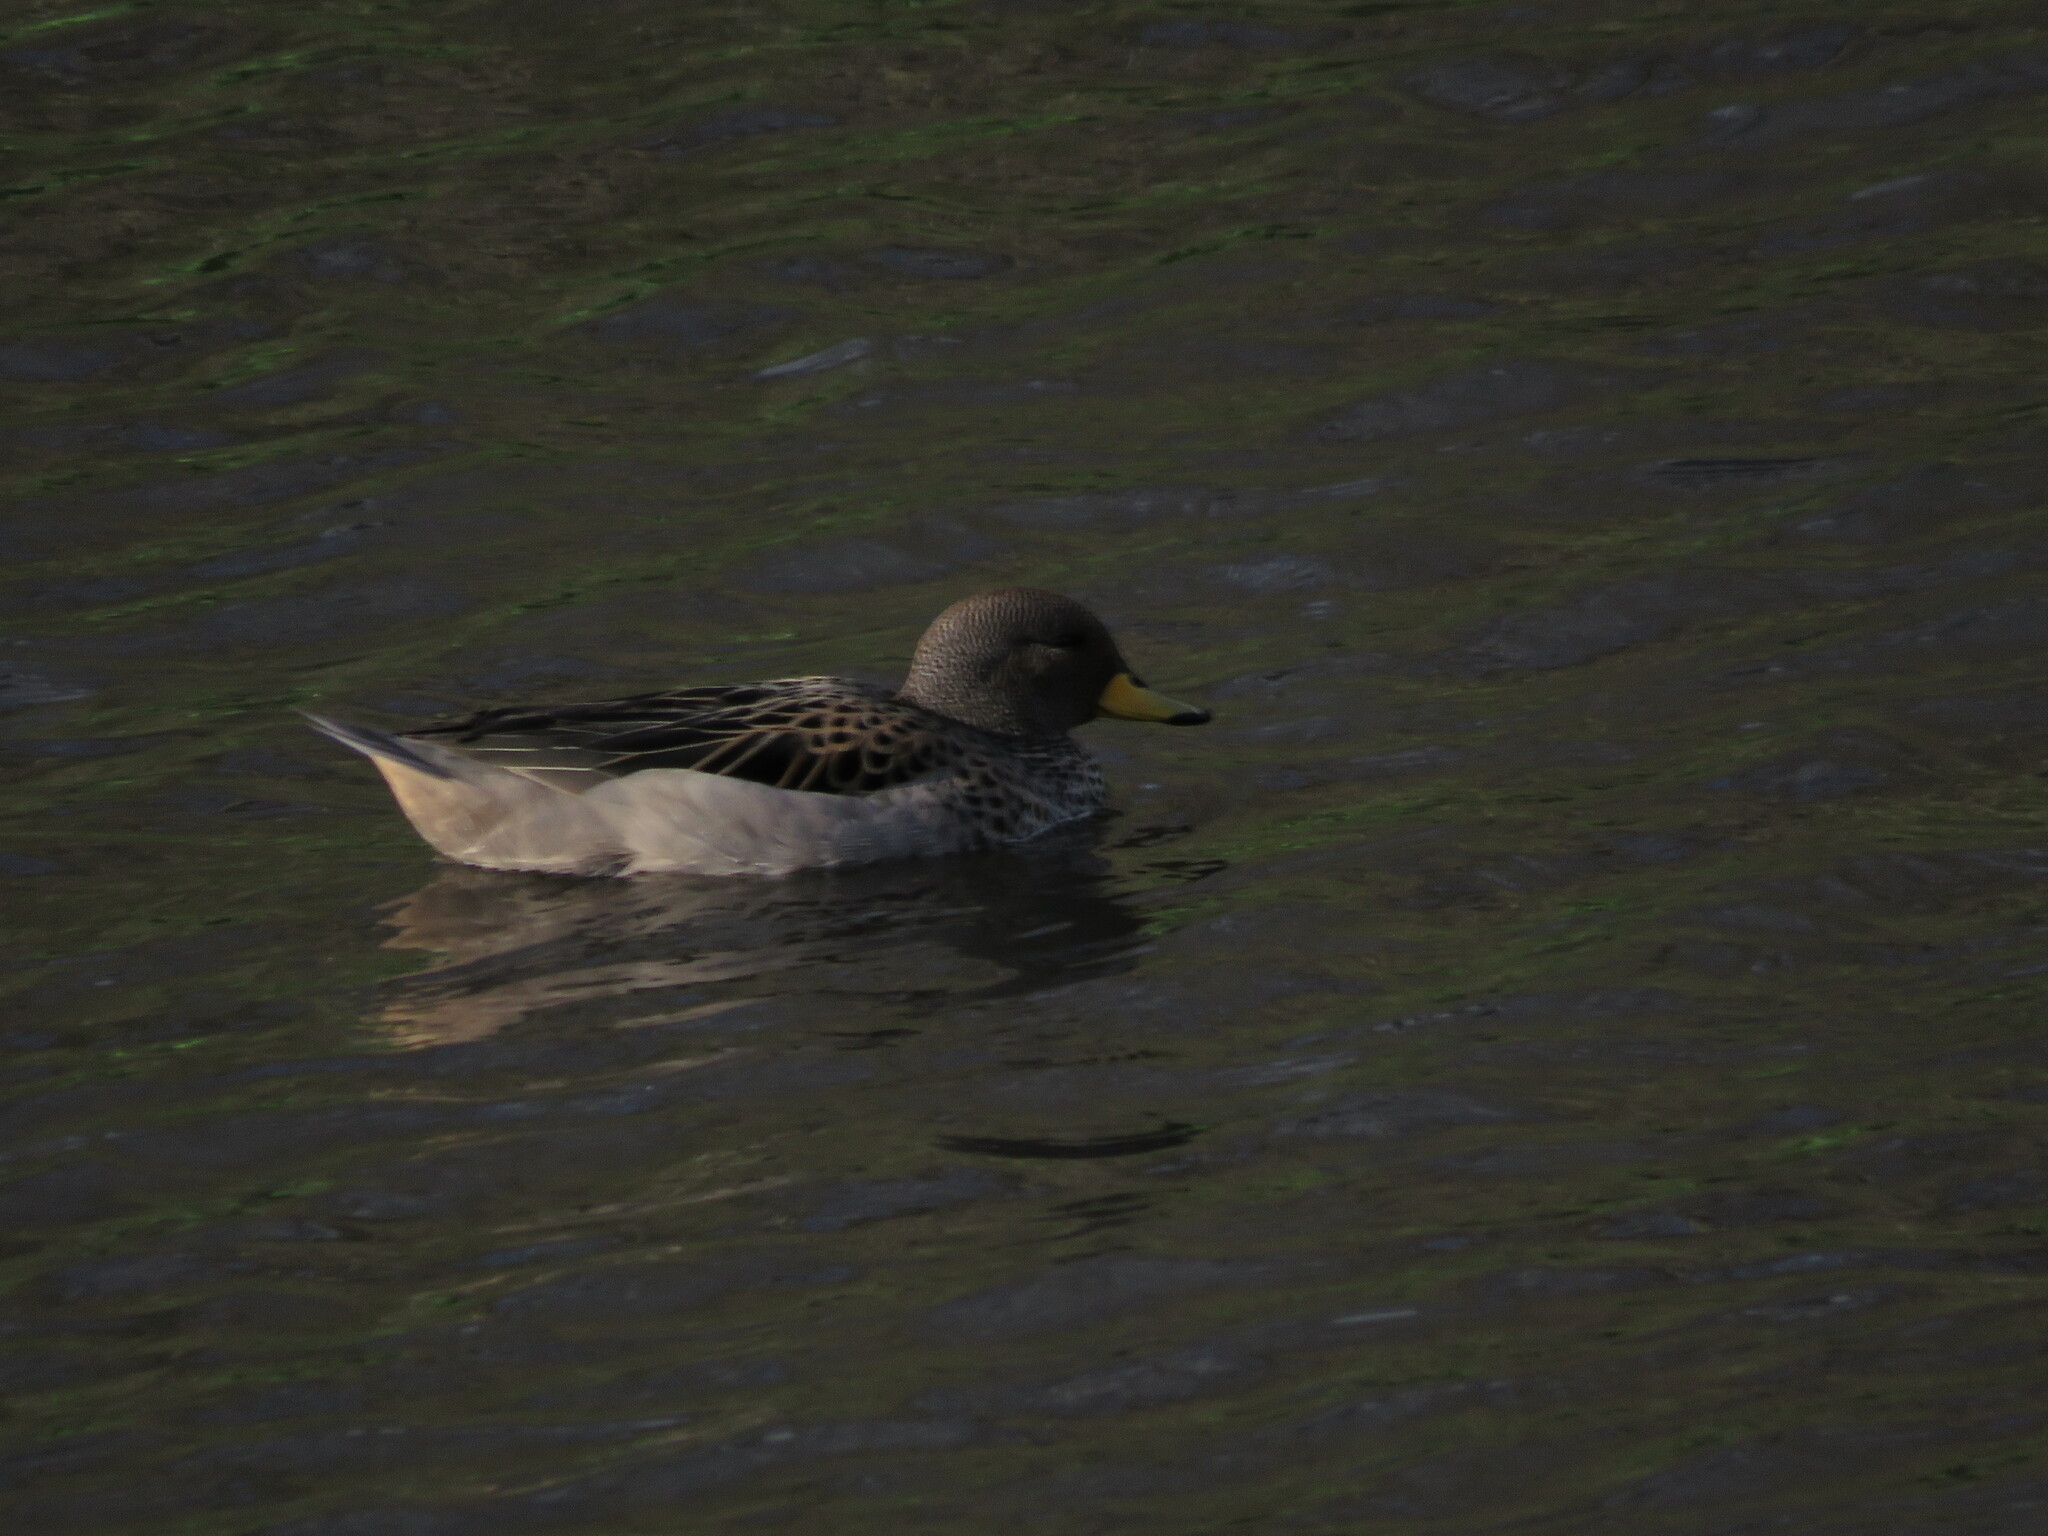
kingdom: Animalia
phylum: Chordata
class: Aves
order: Anseriformes
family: Anatidae
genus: Anas
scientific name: Anas flavirostris
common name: Yellow-billed teal
